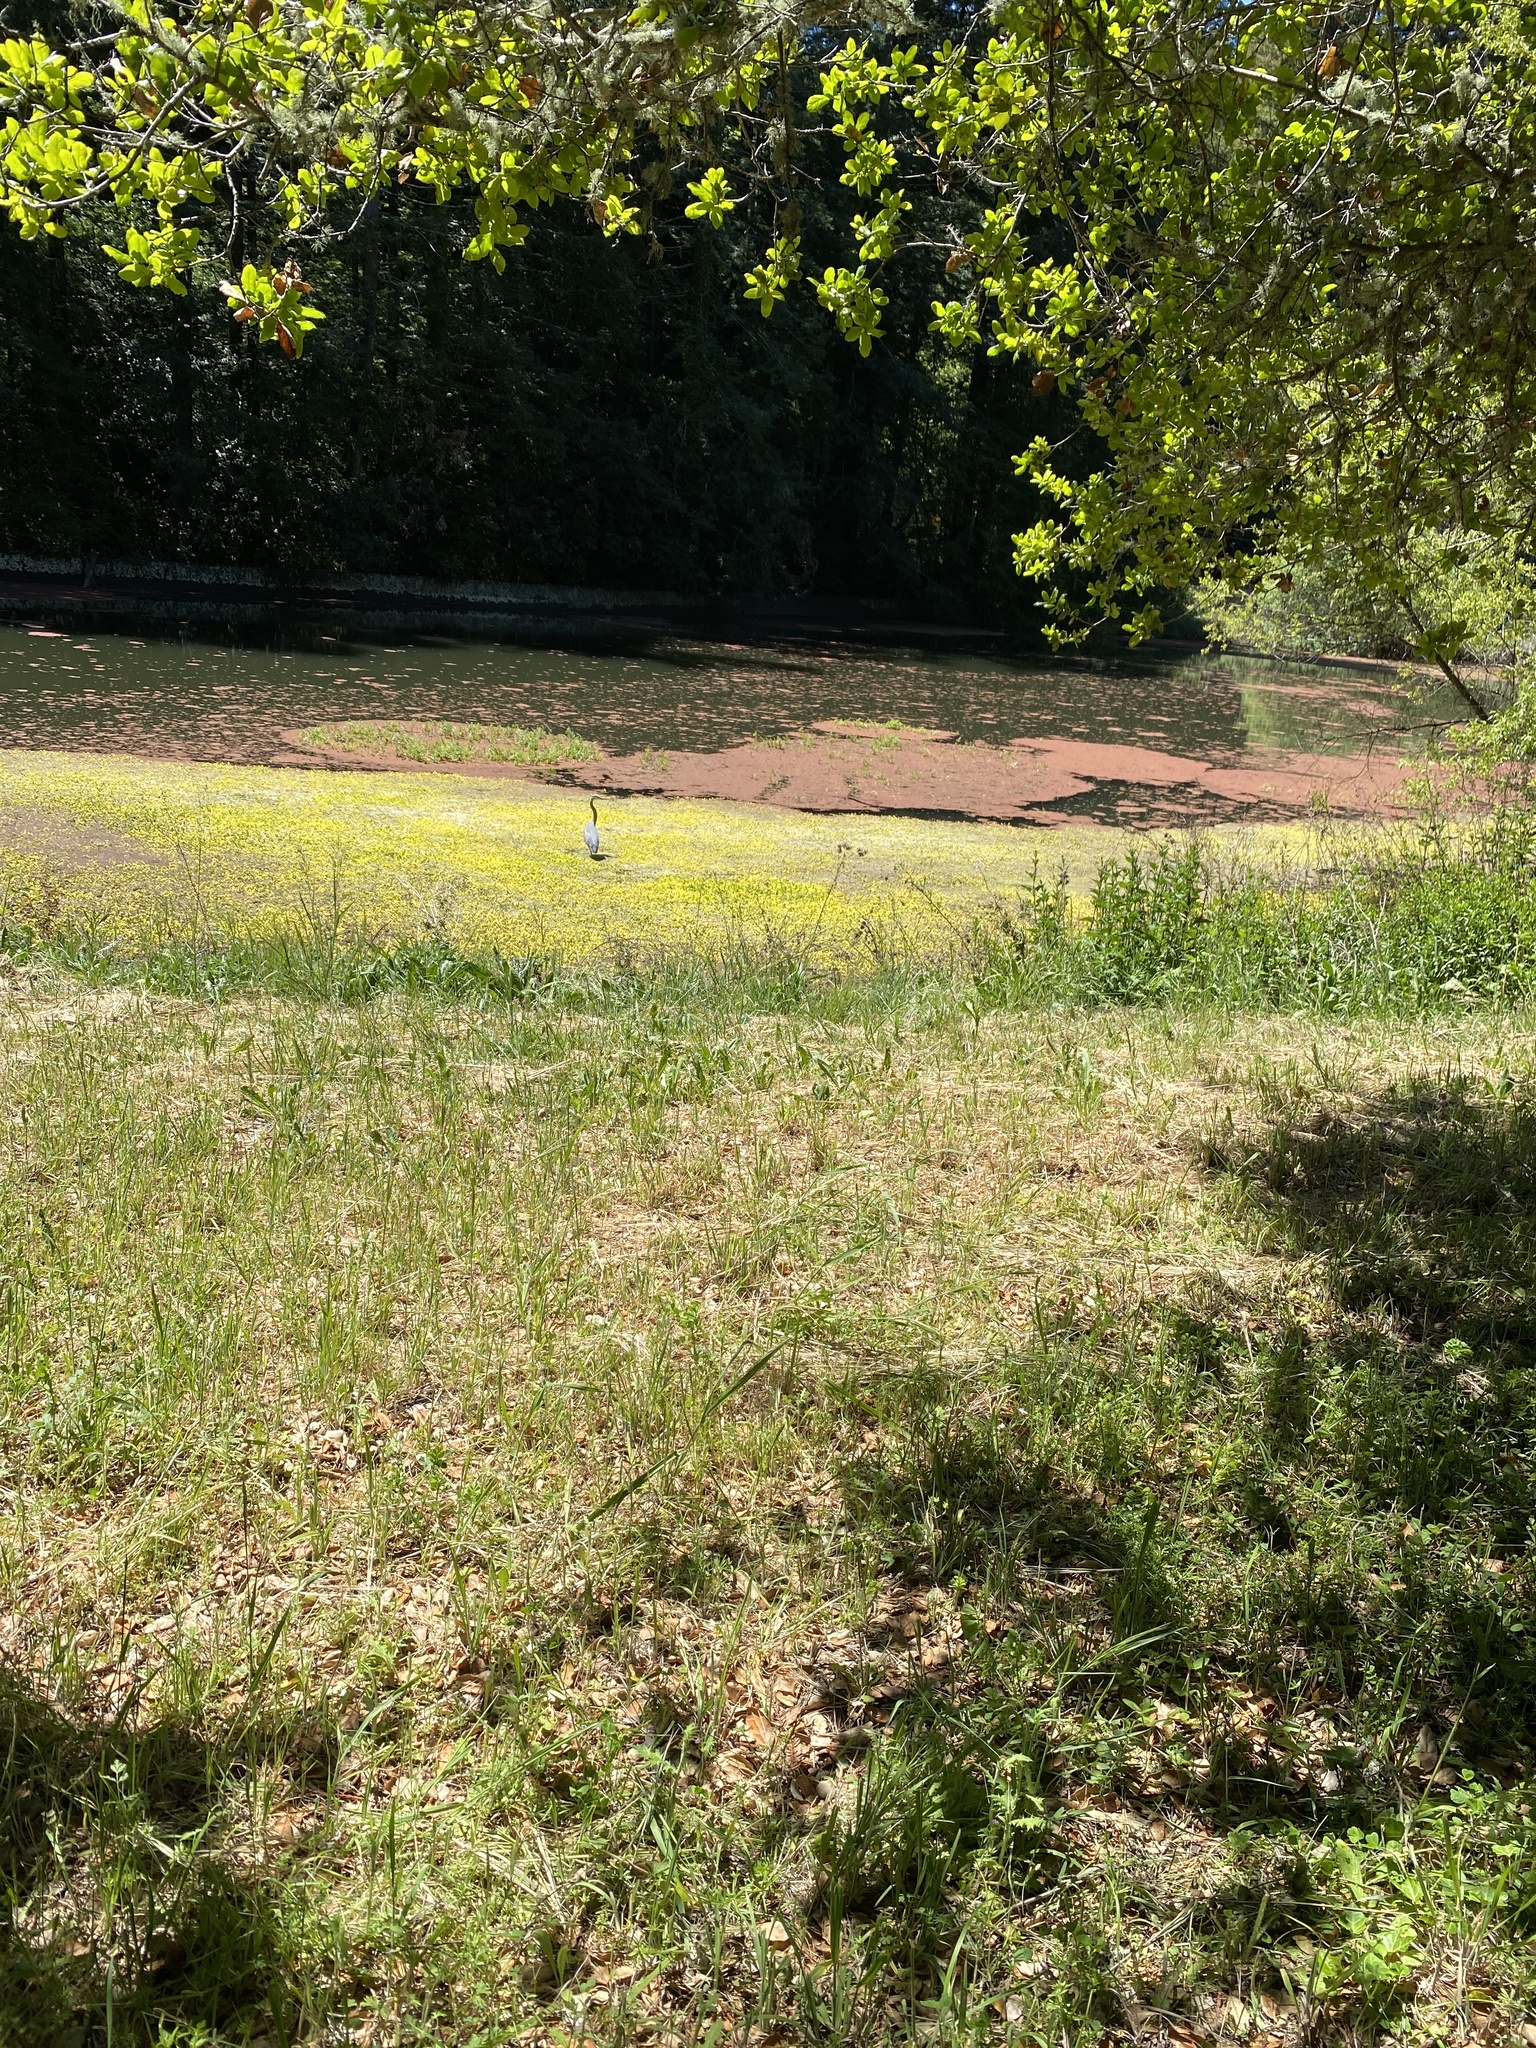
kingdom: Animalia
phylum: Chordata
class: Aves
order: Pelecaniformes
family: Ardeidae
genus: Ardea
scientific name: Ardea herodias
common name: Great blue heron
